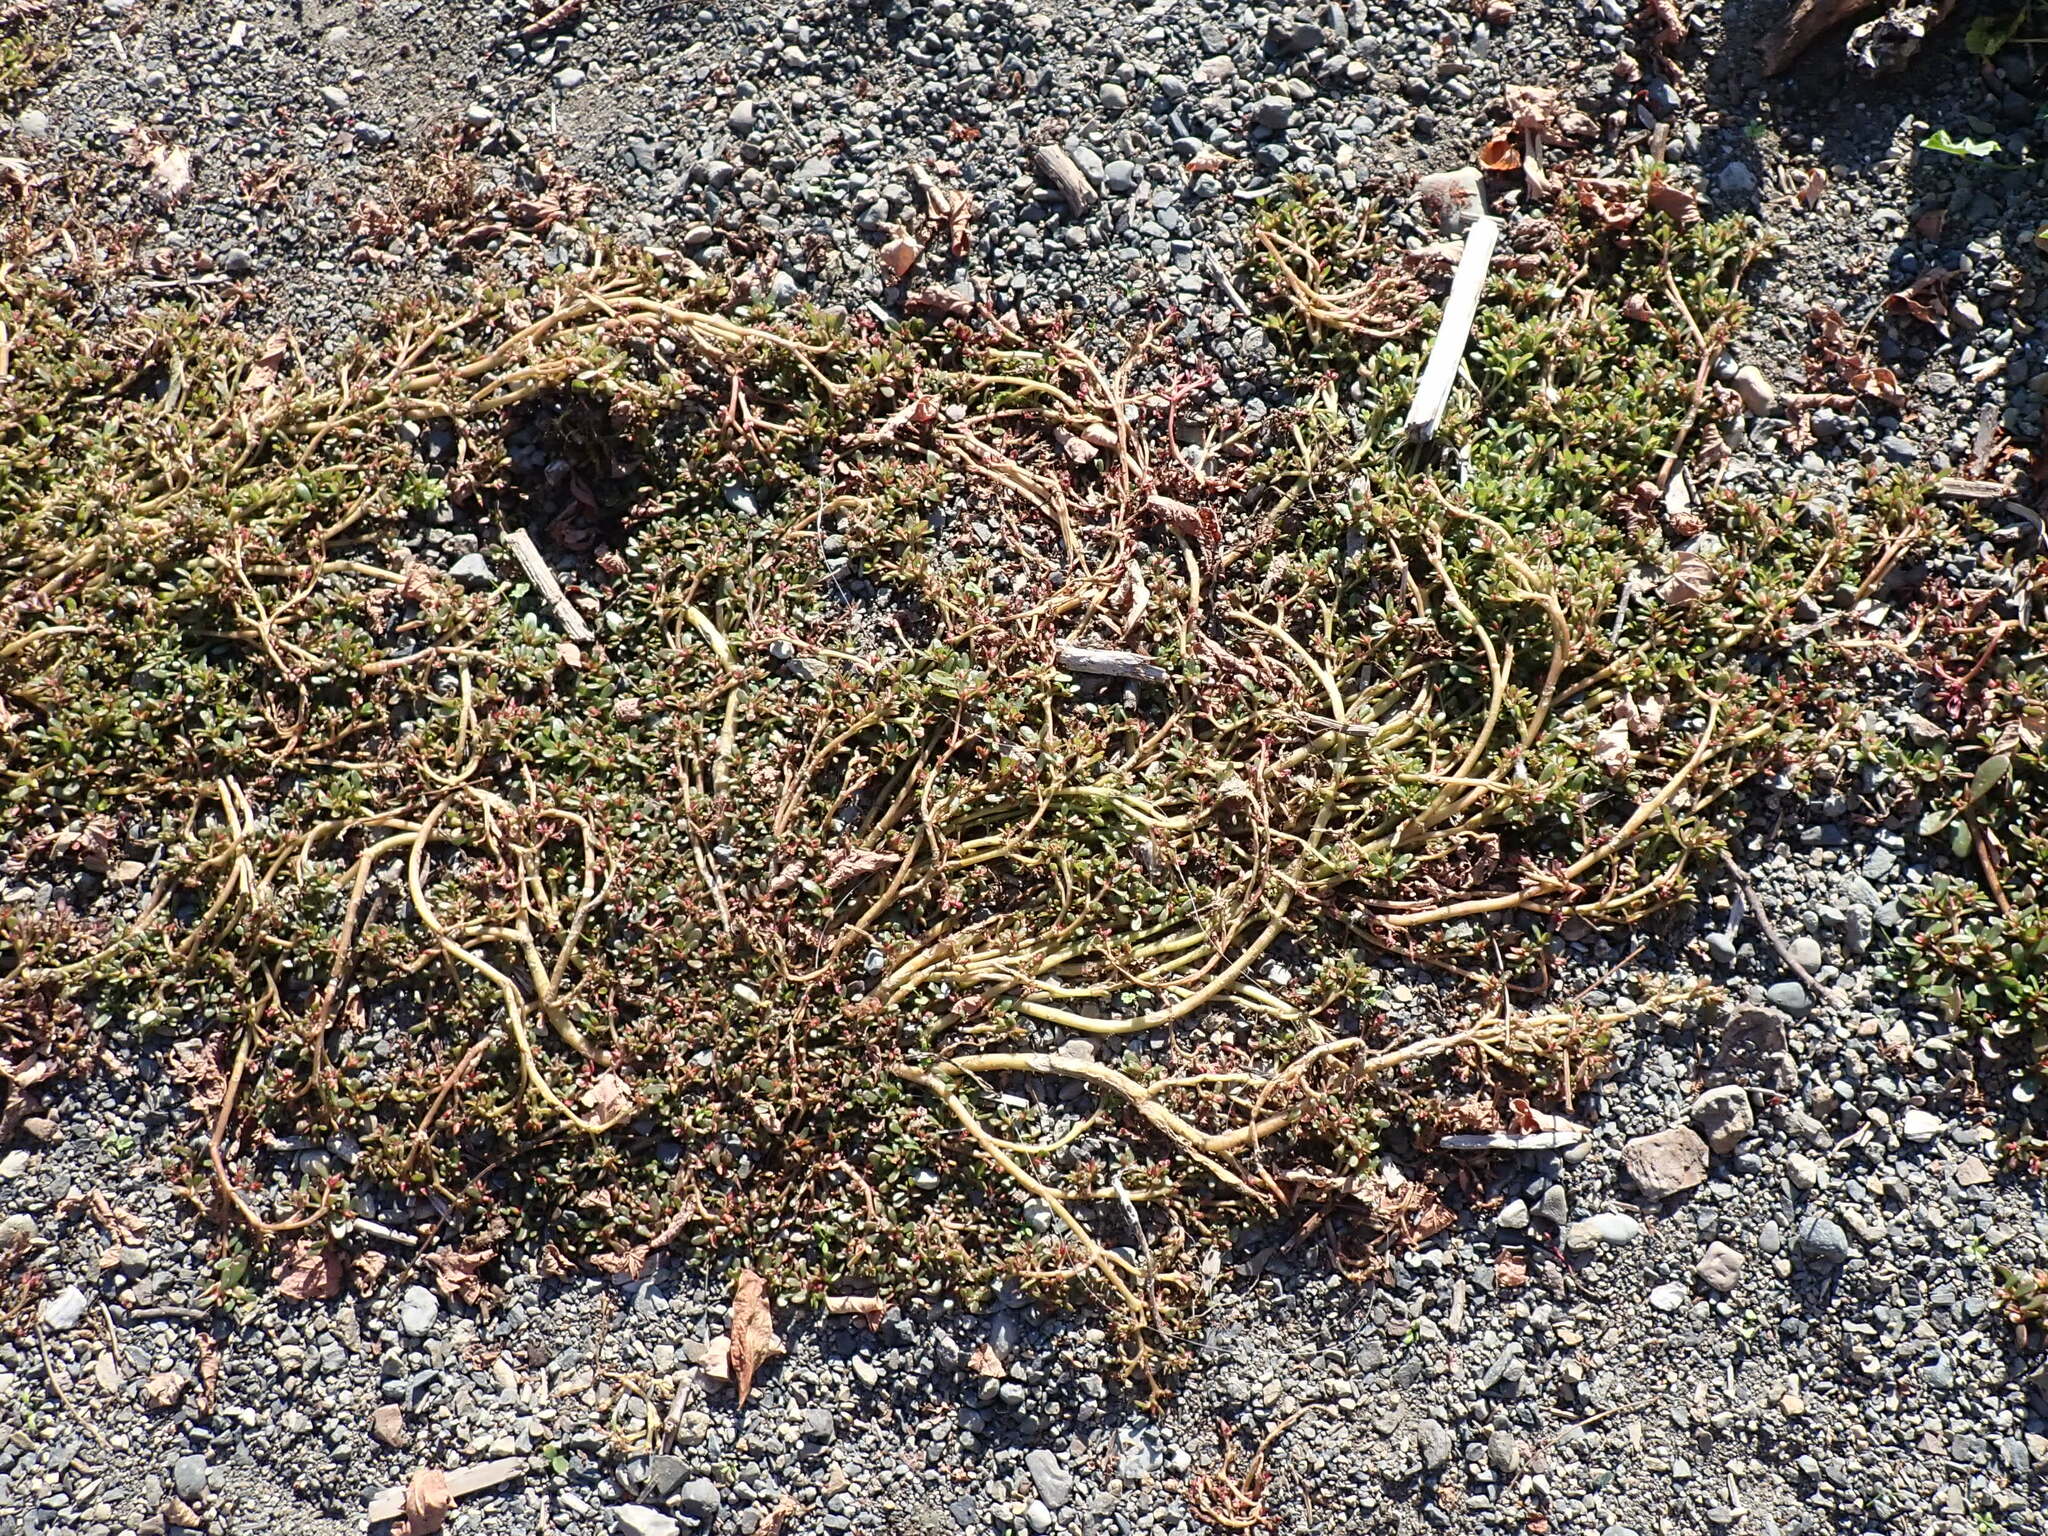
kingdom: Plantae
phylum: Tracheophyta
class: Magnoliopsida
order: Caryophyllales
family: Portulacaceae
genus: Portulaca
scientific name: Portulaca oleracea
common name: Common purslane
